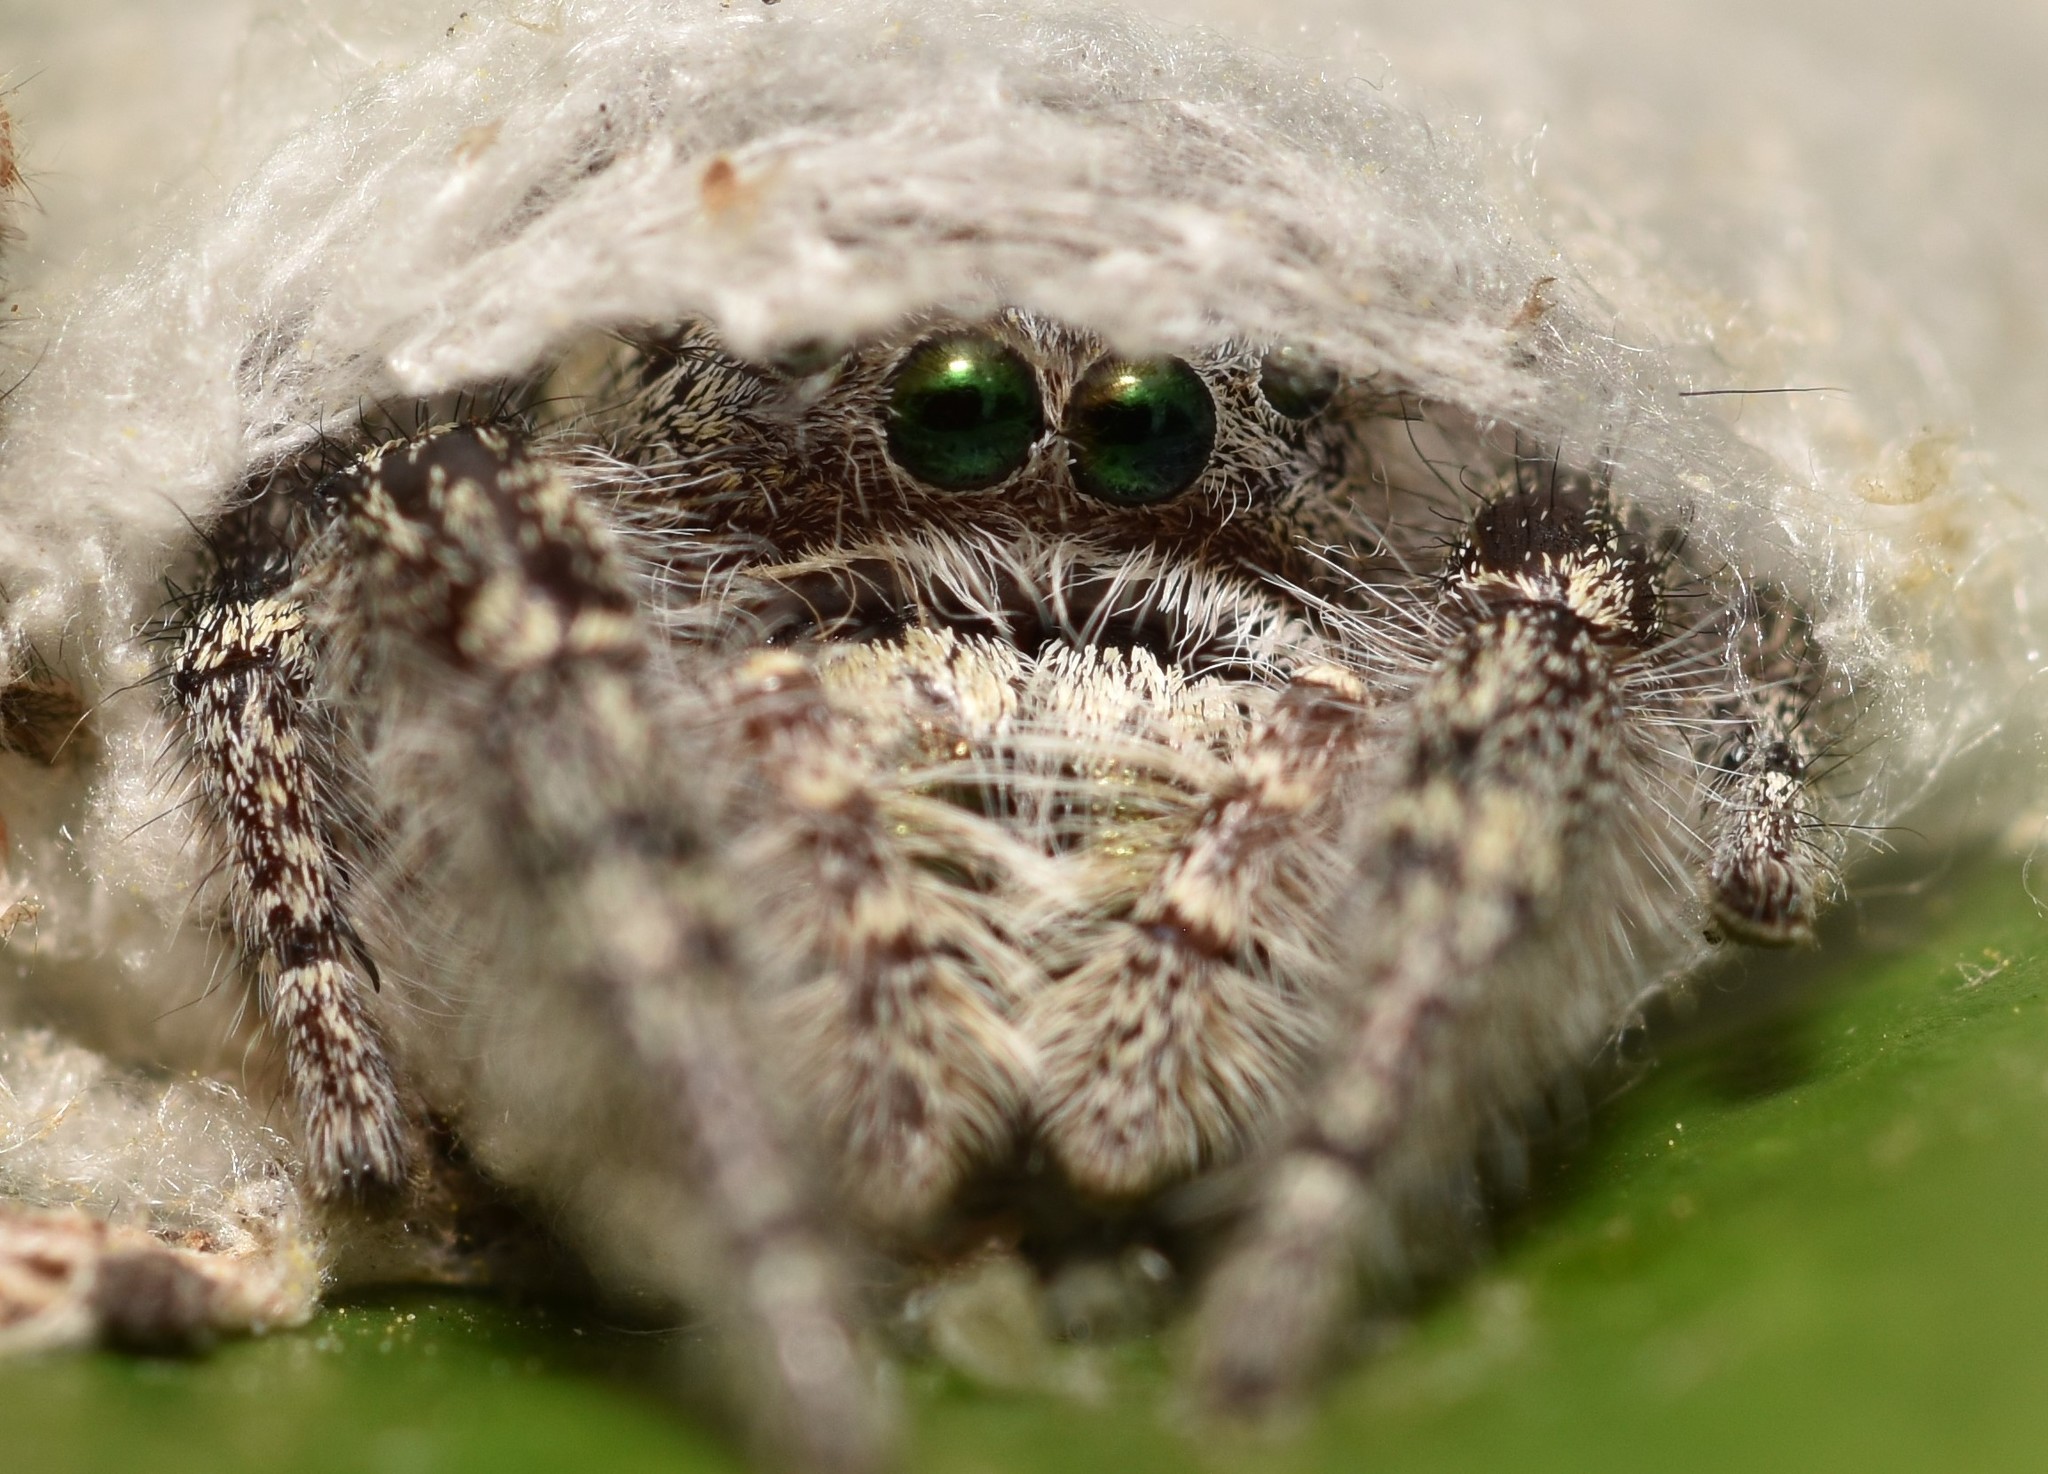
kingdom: Animalia
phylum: Arthropoda
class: Arachnida
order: Araneae
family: Salticidae
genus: Phidippus
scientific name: Phidippus carolinensis
